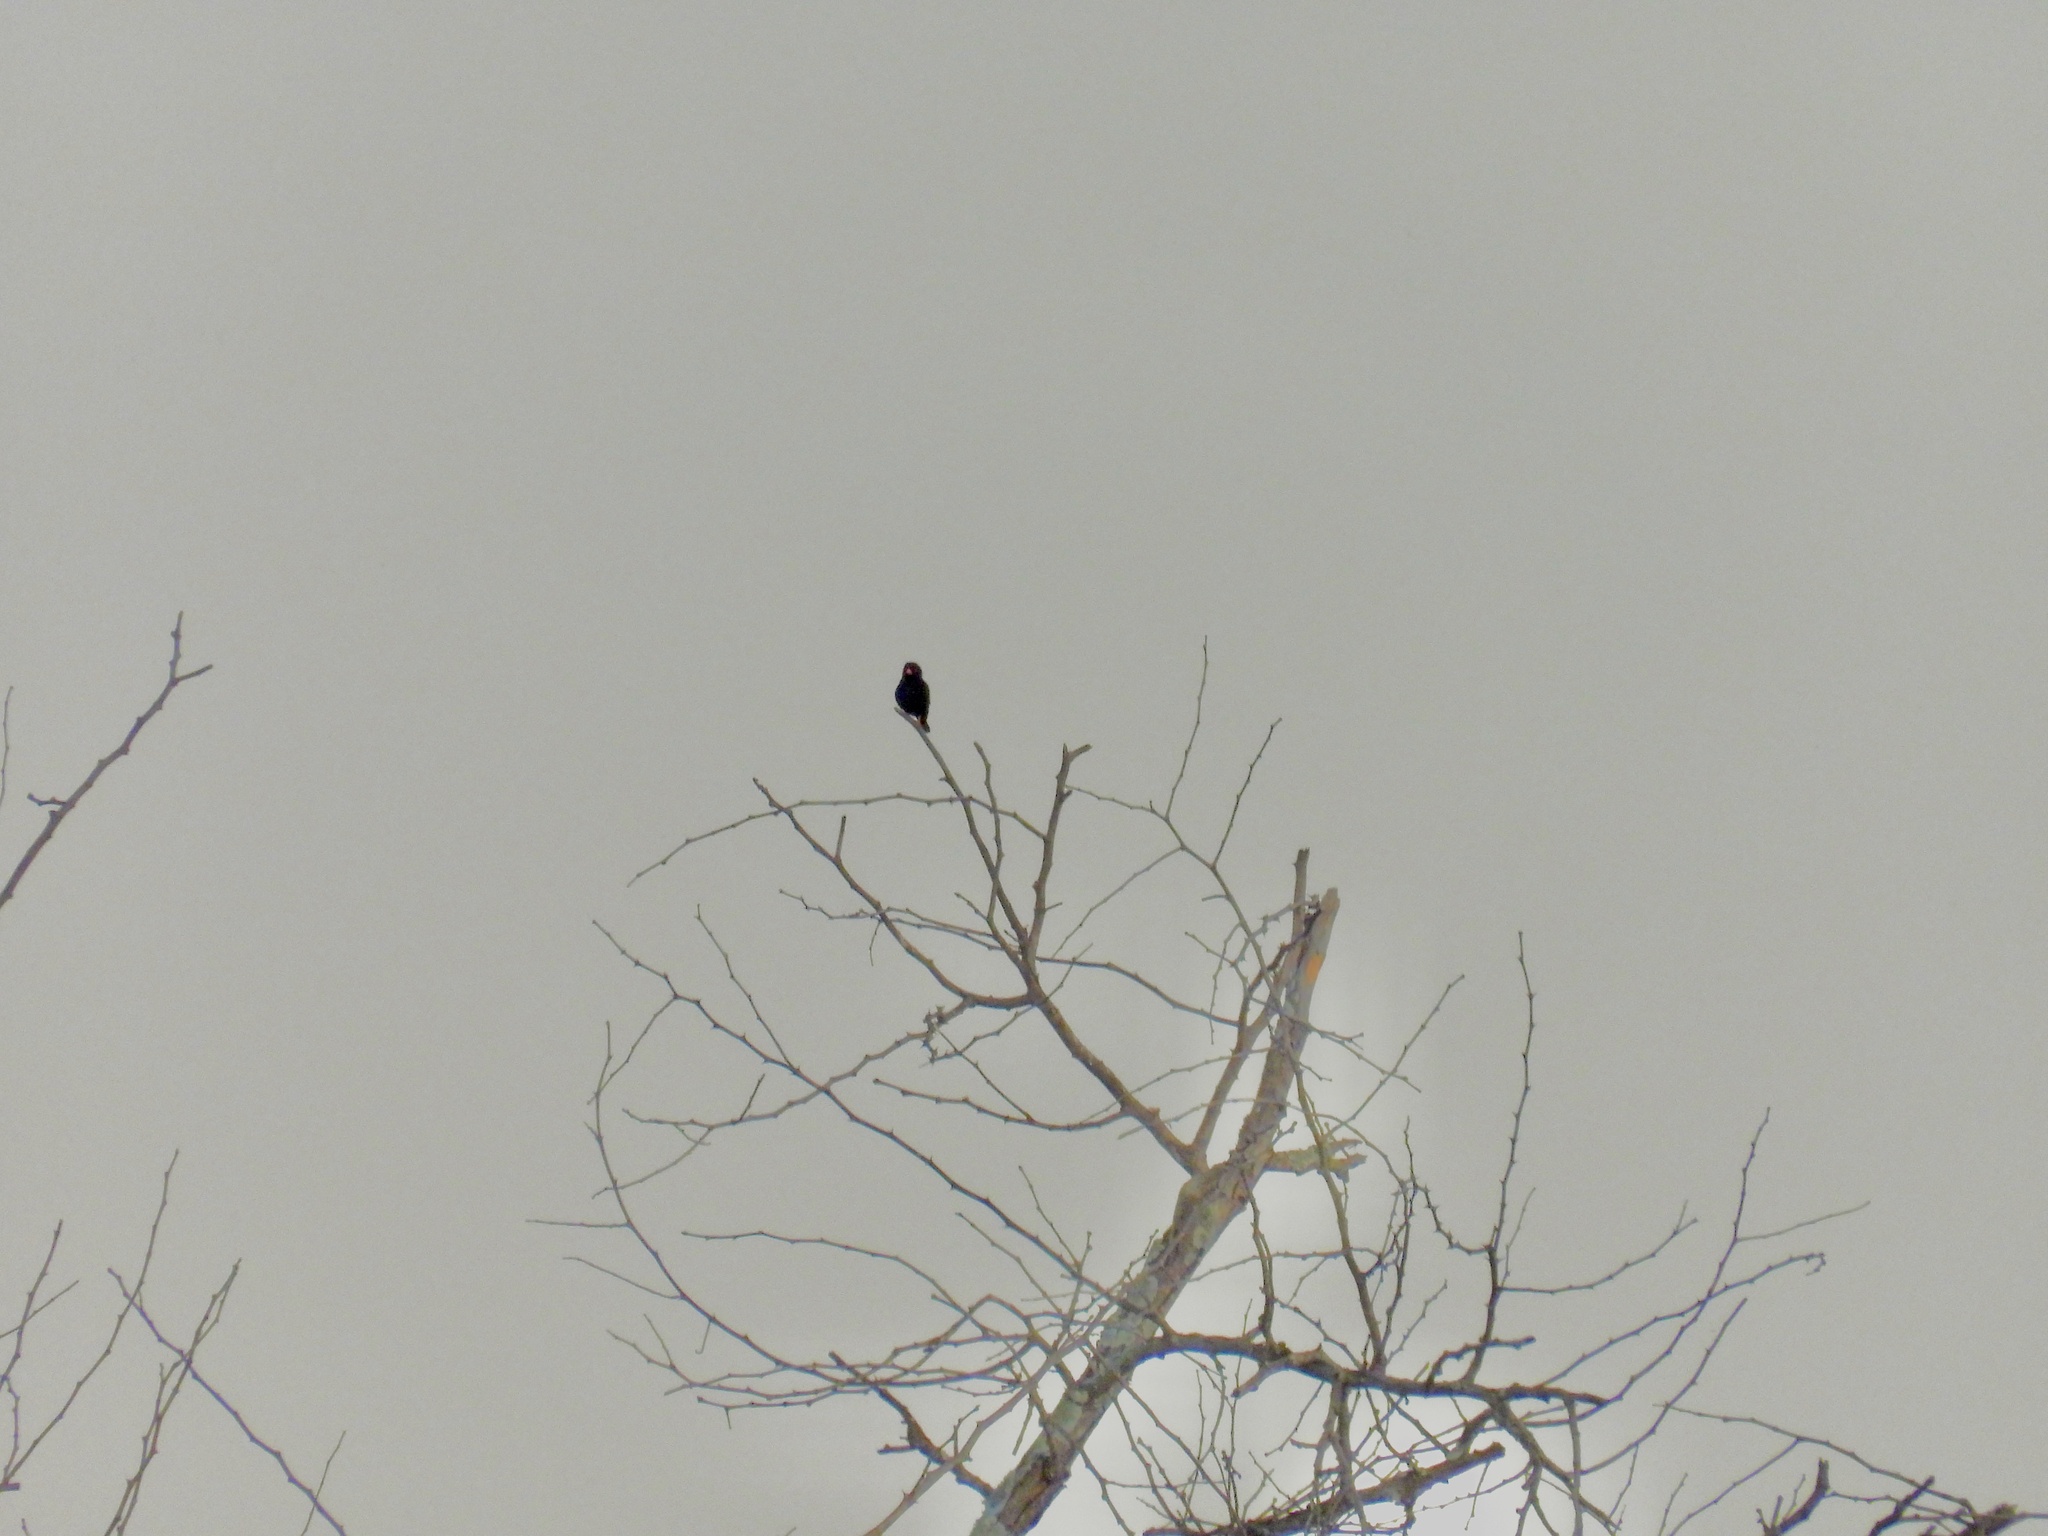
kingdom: Animalia
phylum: Chordata
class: Aves
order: Passeriformes
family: Viduidae
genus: Vidua
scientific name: Vidua chalybeata
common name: Village indigobird
